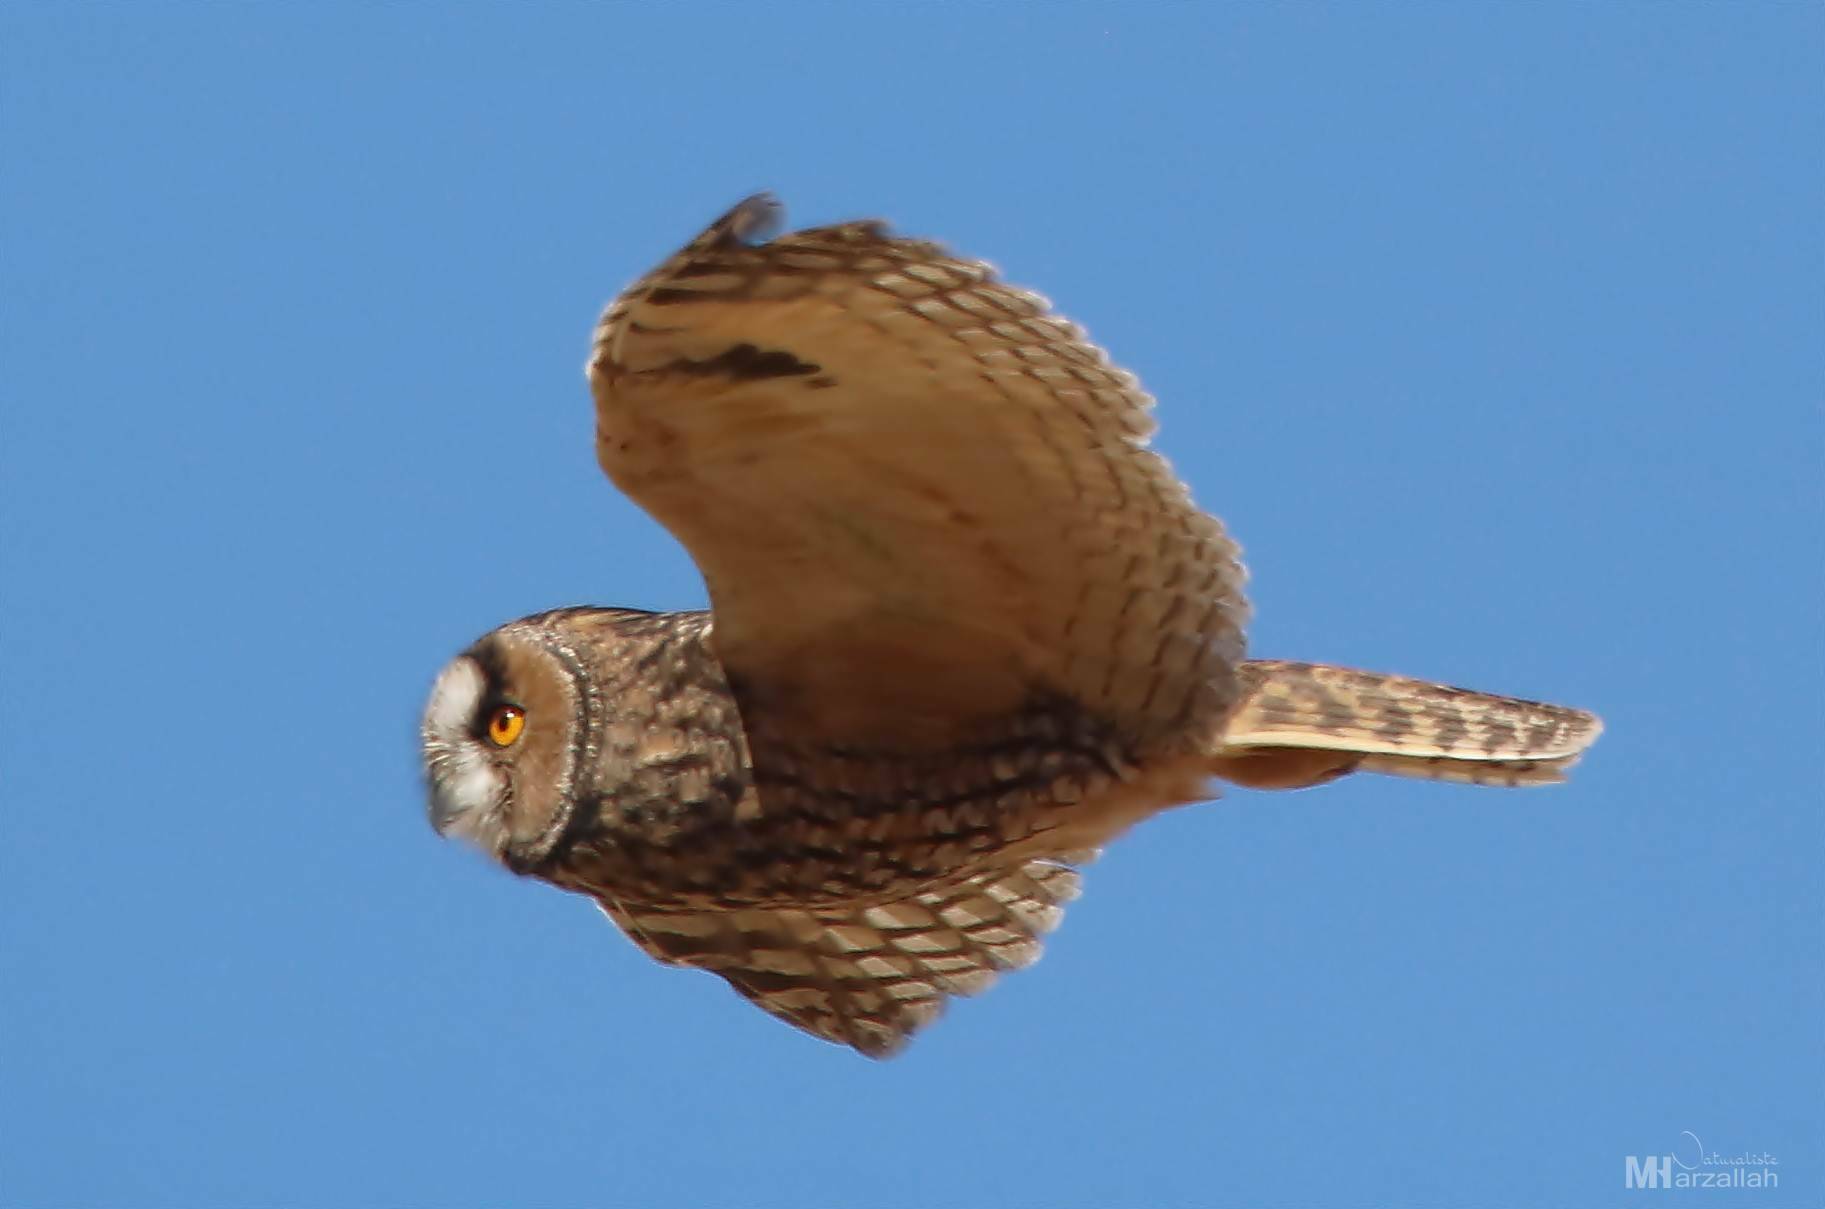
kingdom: Animalia
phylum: Chordata
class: Aves
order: Strigiformes
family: Strigidae
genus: Asio
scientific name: Asio otus
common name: Long-eared owl
